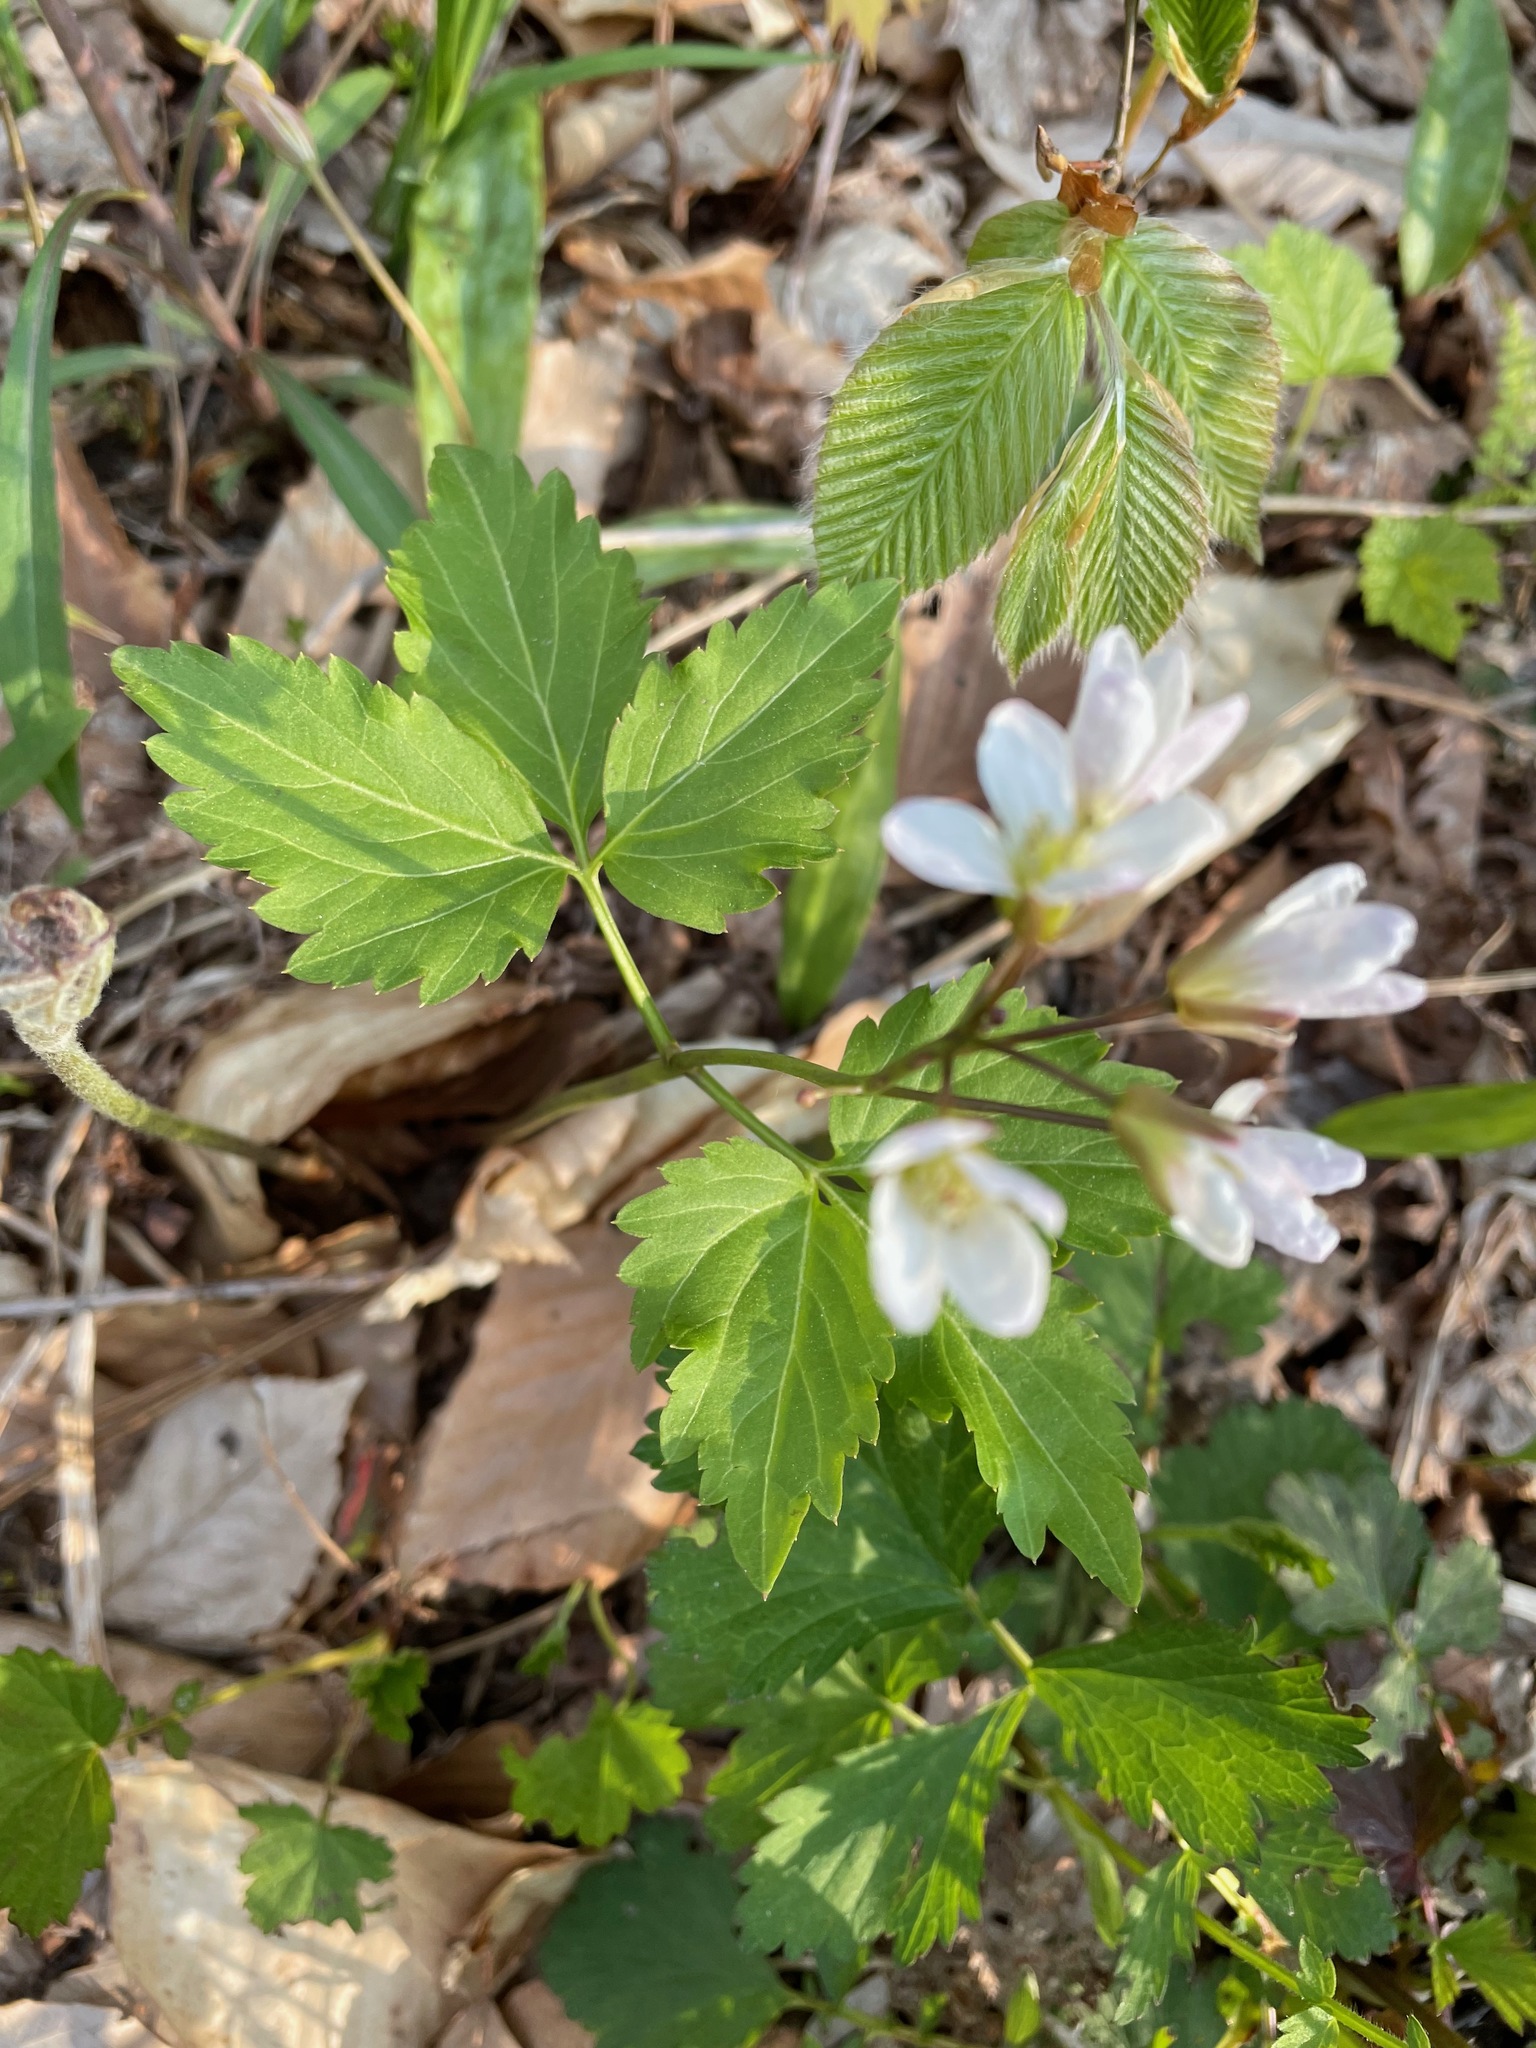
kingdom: Plantae
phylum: Tracheophyta
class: Magnoliopsida
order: Brassicales
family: Brassicaceae
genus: Cardamine
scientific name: Cardamine diphylla
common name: Broad-leaved toothwort
